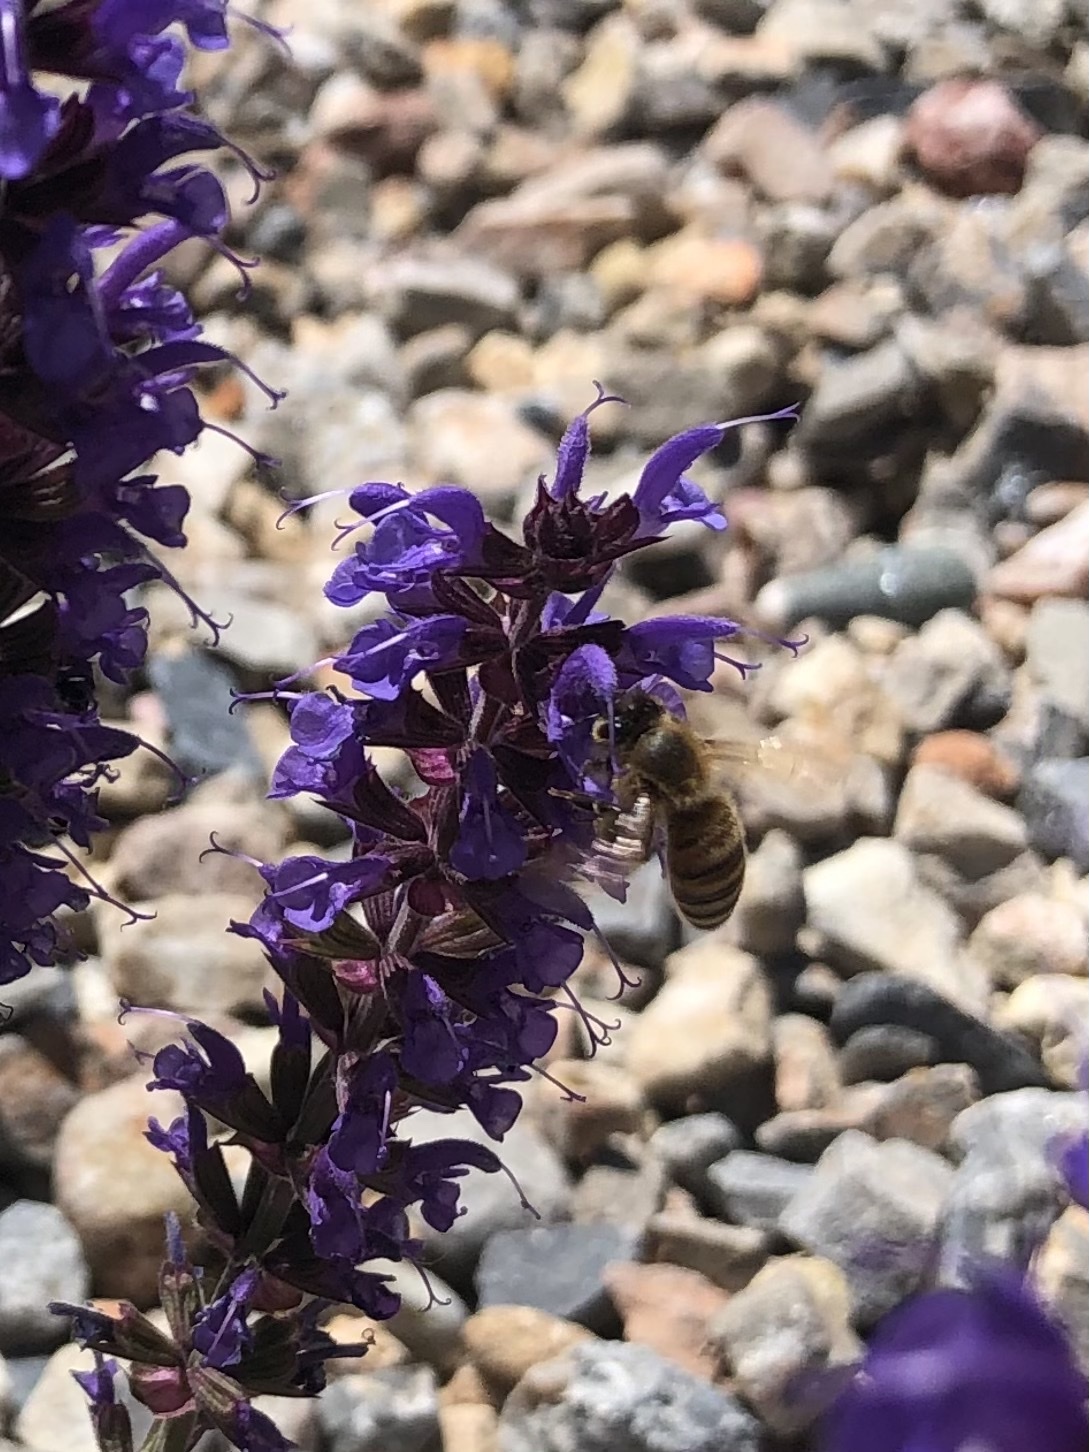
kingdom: Animalia
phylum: Arthropoda
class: Insecta
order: Hymenoptera
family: Apidae
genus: Apis
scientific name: Apis mellifera
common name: Honey bee
